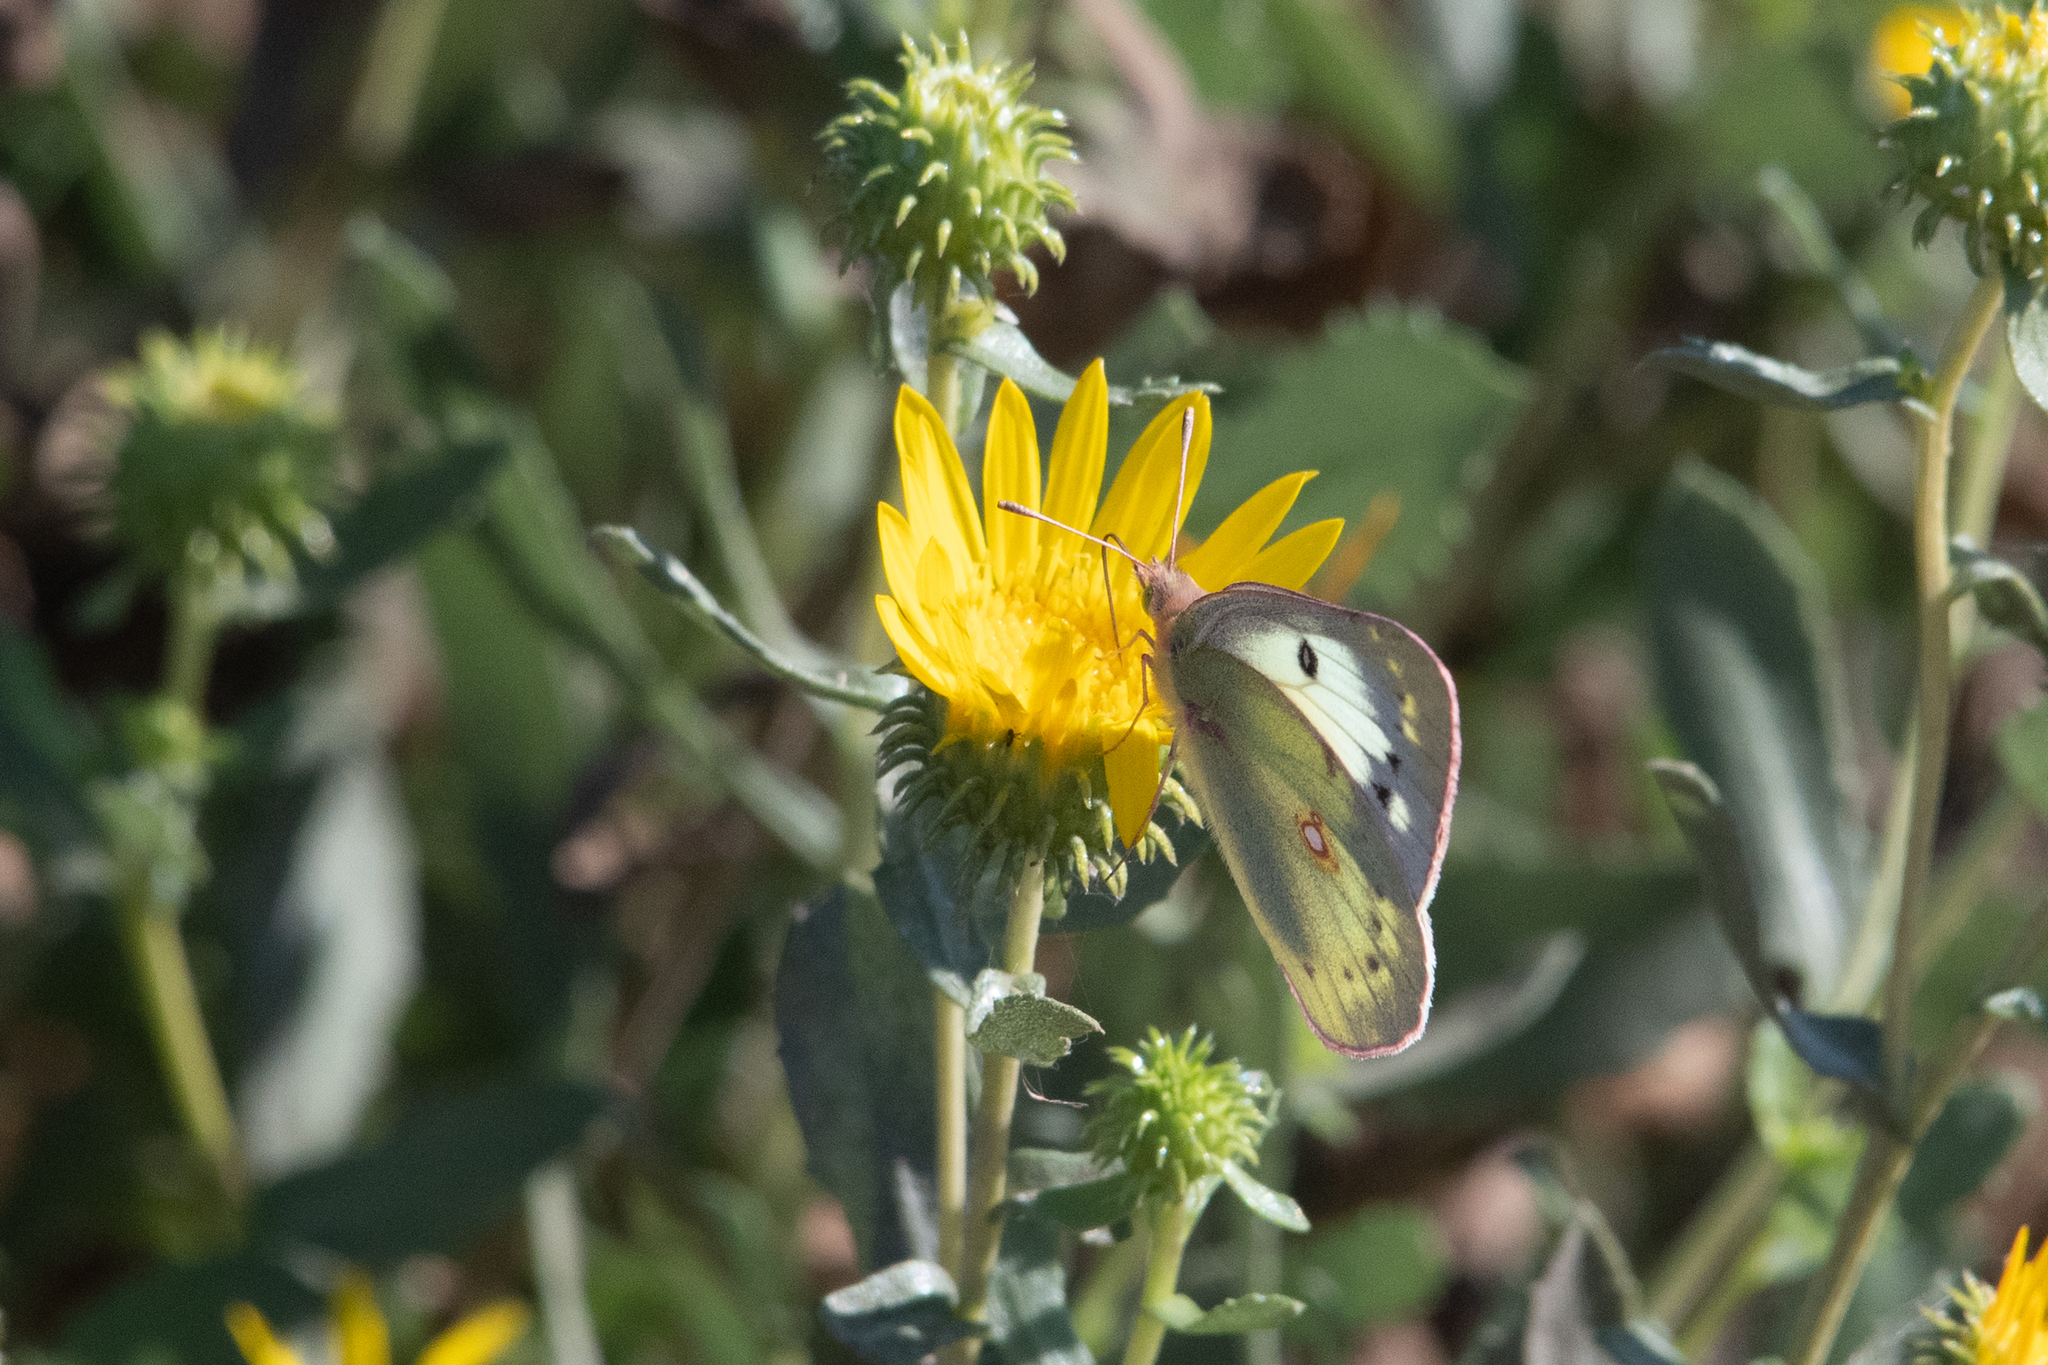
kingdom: Animalia
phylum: Arthropoda
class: Insecta
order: Lepidoptera
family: Pieridae
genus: Colias
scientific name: Colias eurytheme
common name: Alfalfa butterfly
